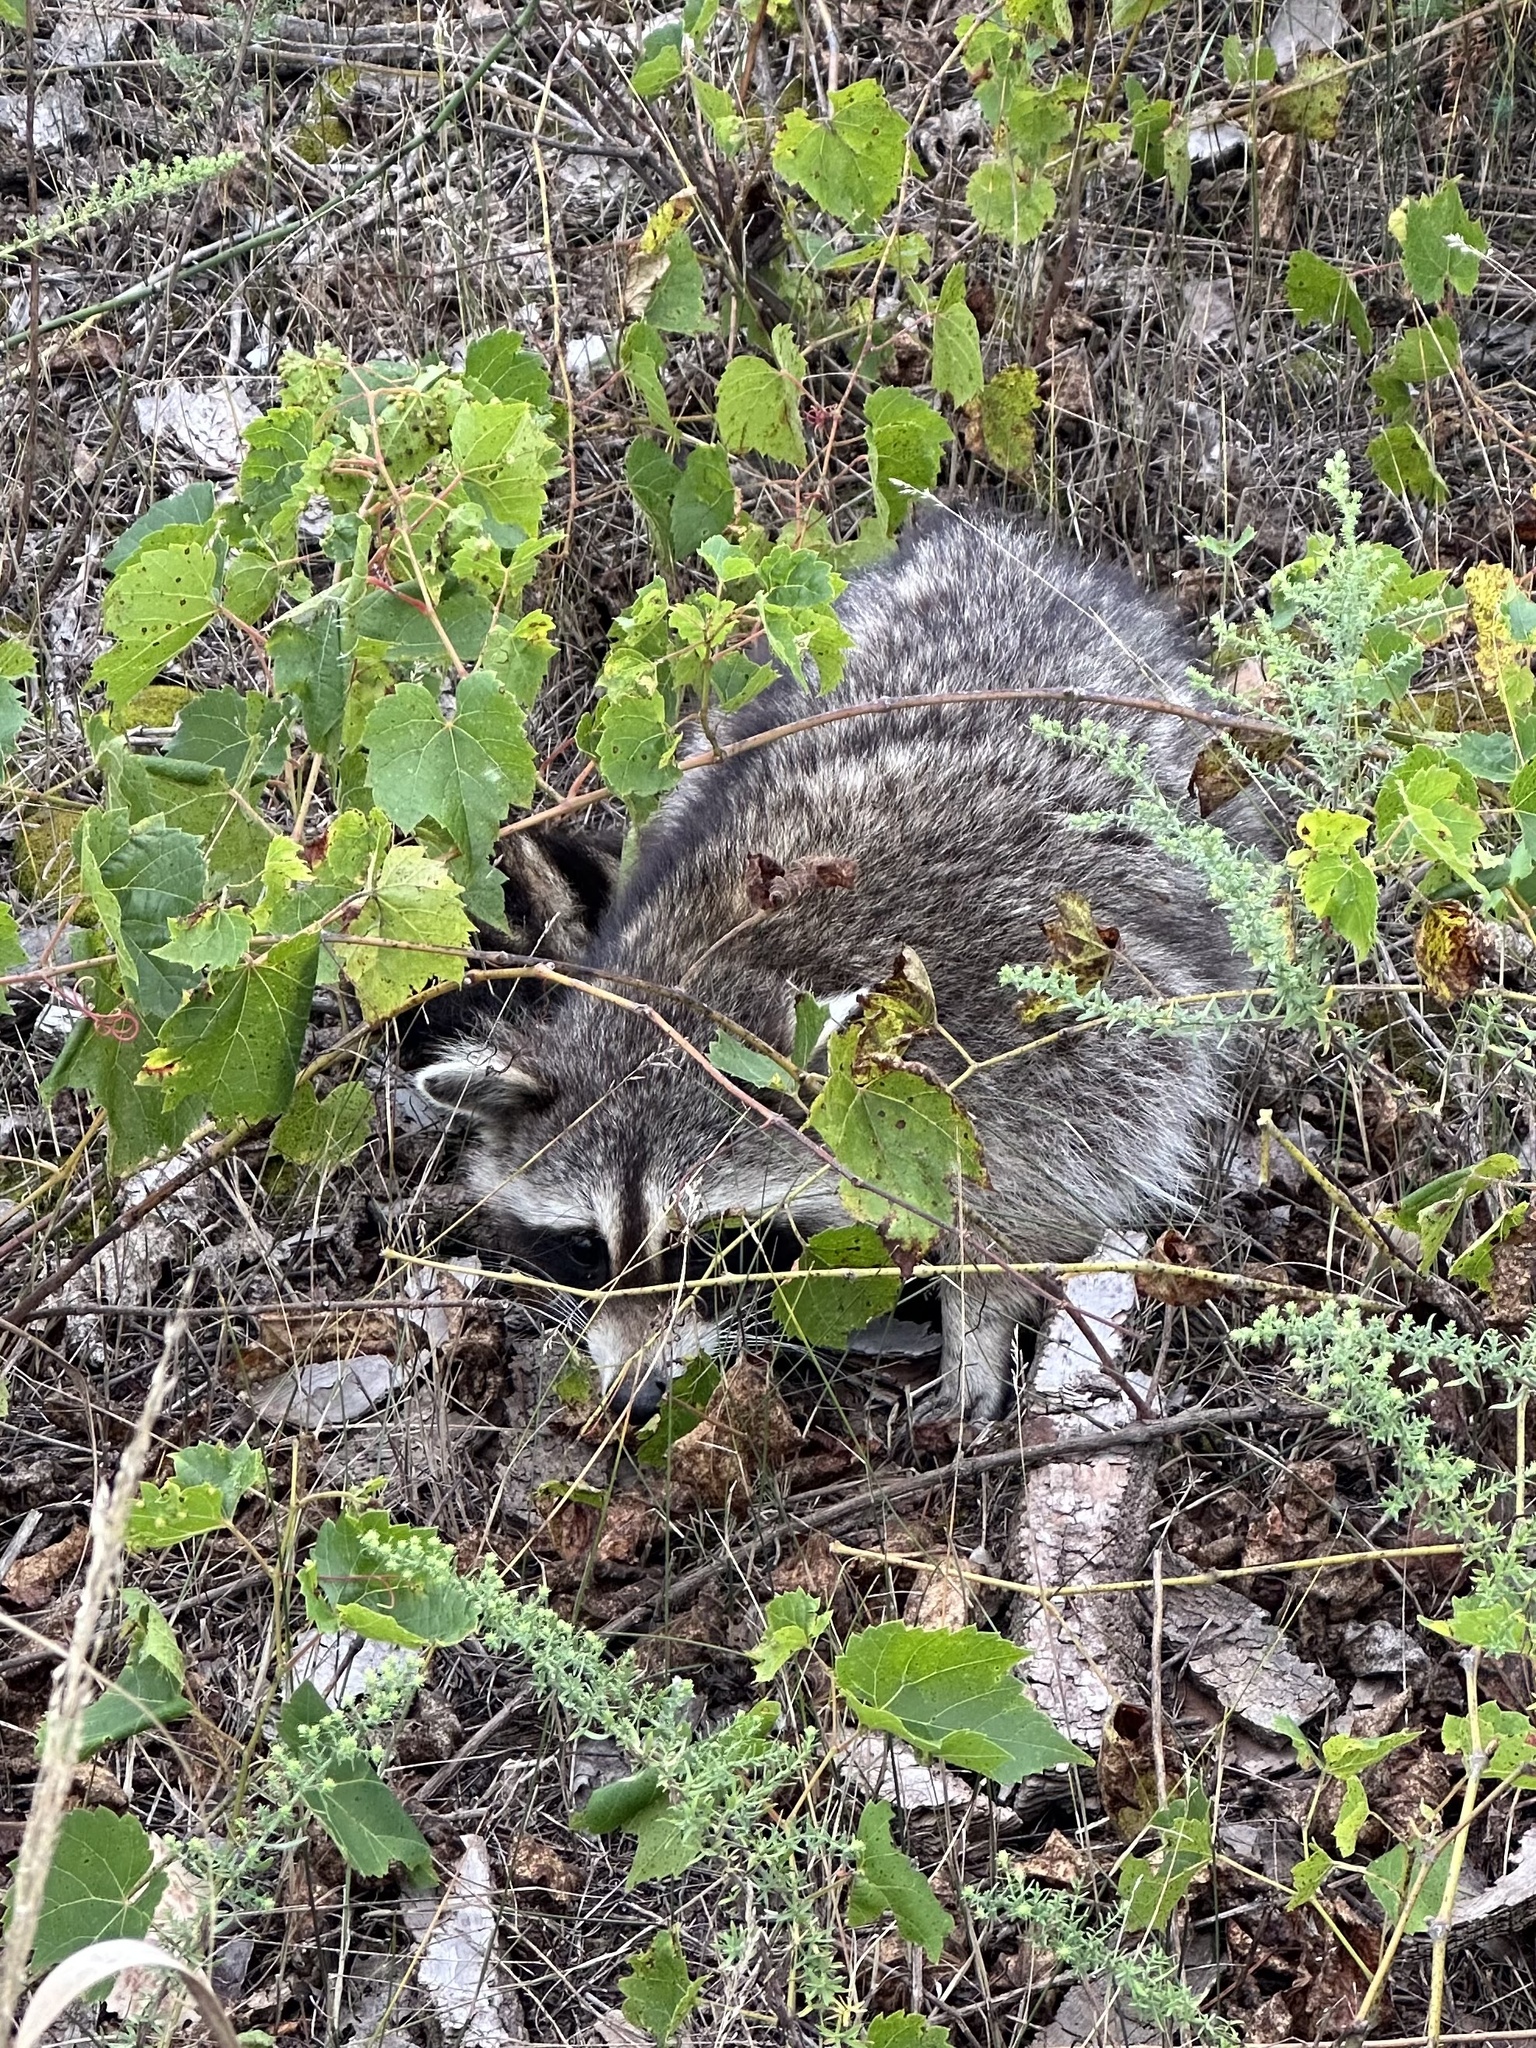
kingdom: Animalia
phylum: Chordata
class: Mammalia
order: Carnivora
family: Procyonidae
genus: Procyon
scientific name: Procyon lotor
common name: Raccoon
